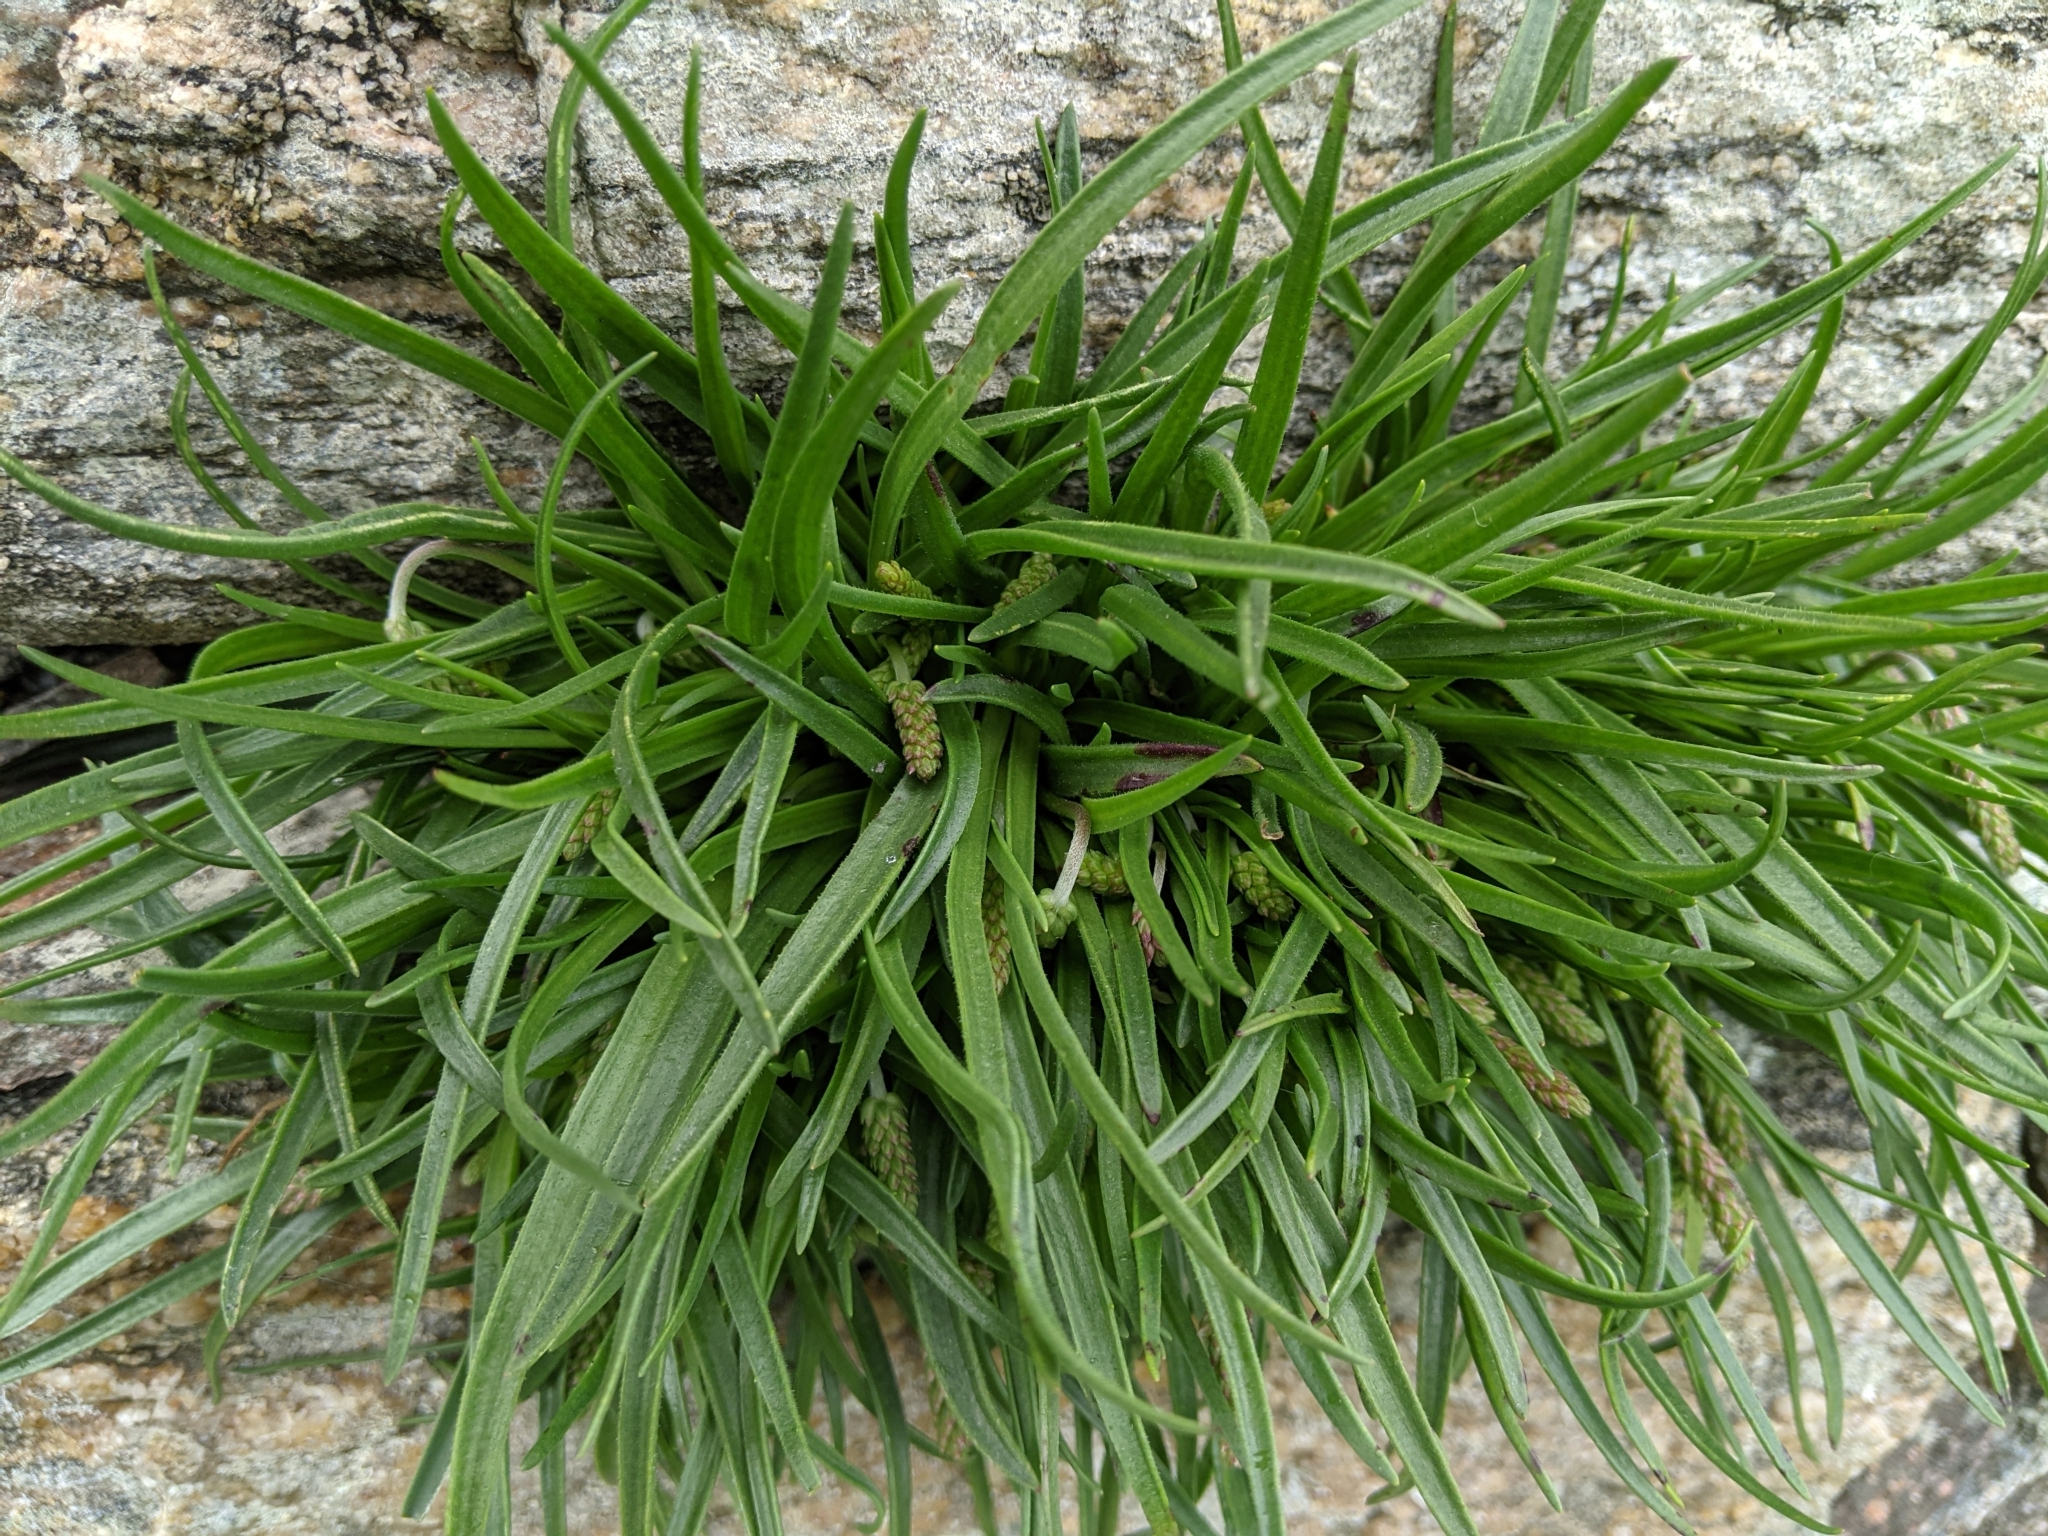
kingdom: Plantae
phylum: Tracheophyta
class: Magnoliopsida
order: Lamiales
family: Plantaginaceae
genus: Plantago
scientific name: Plantago maritima
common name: Sea plantain
